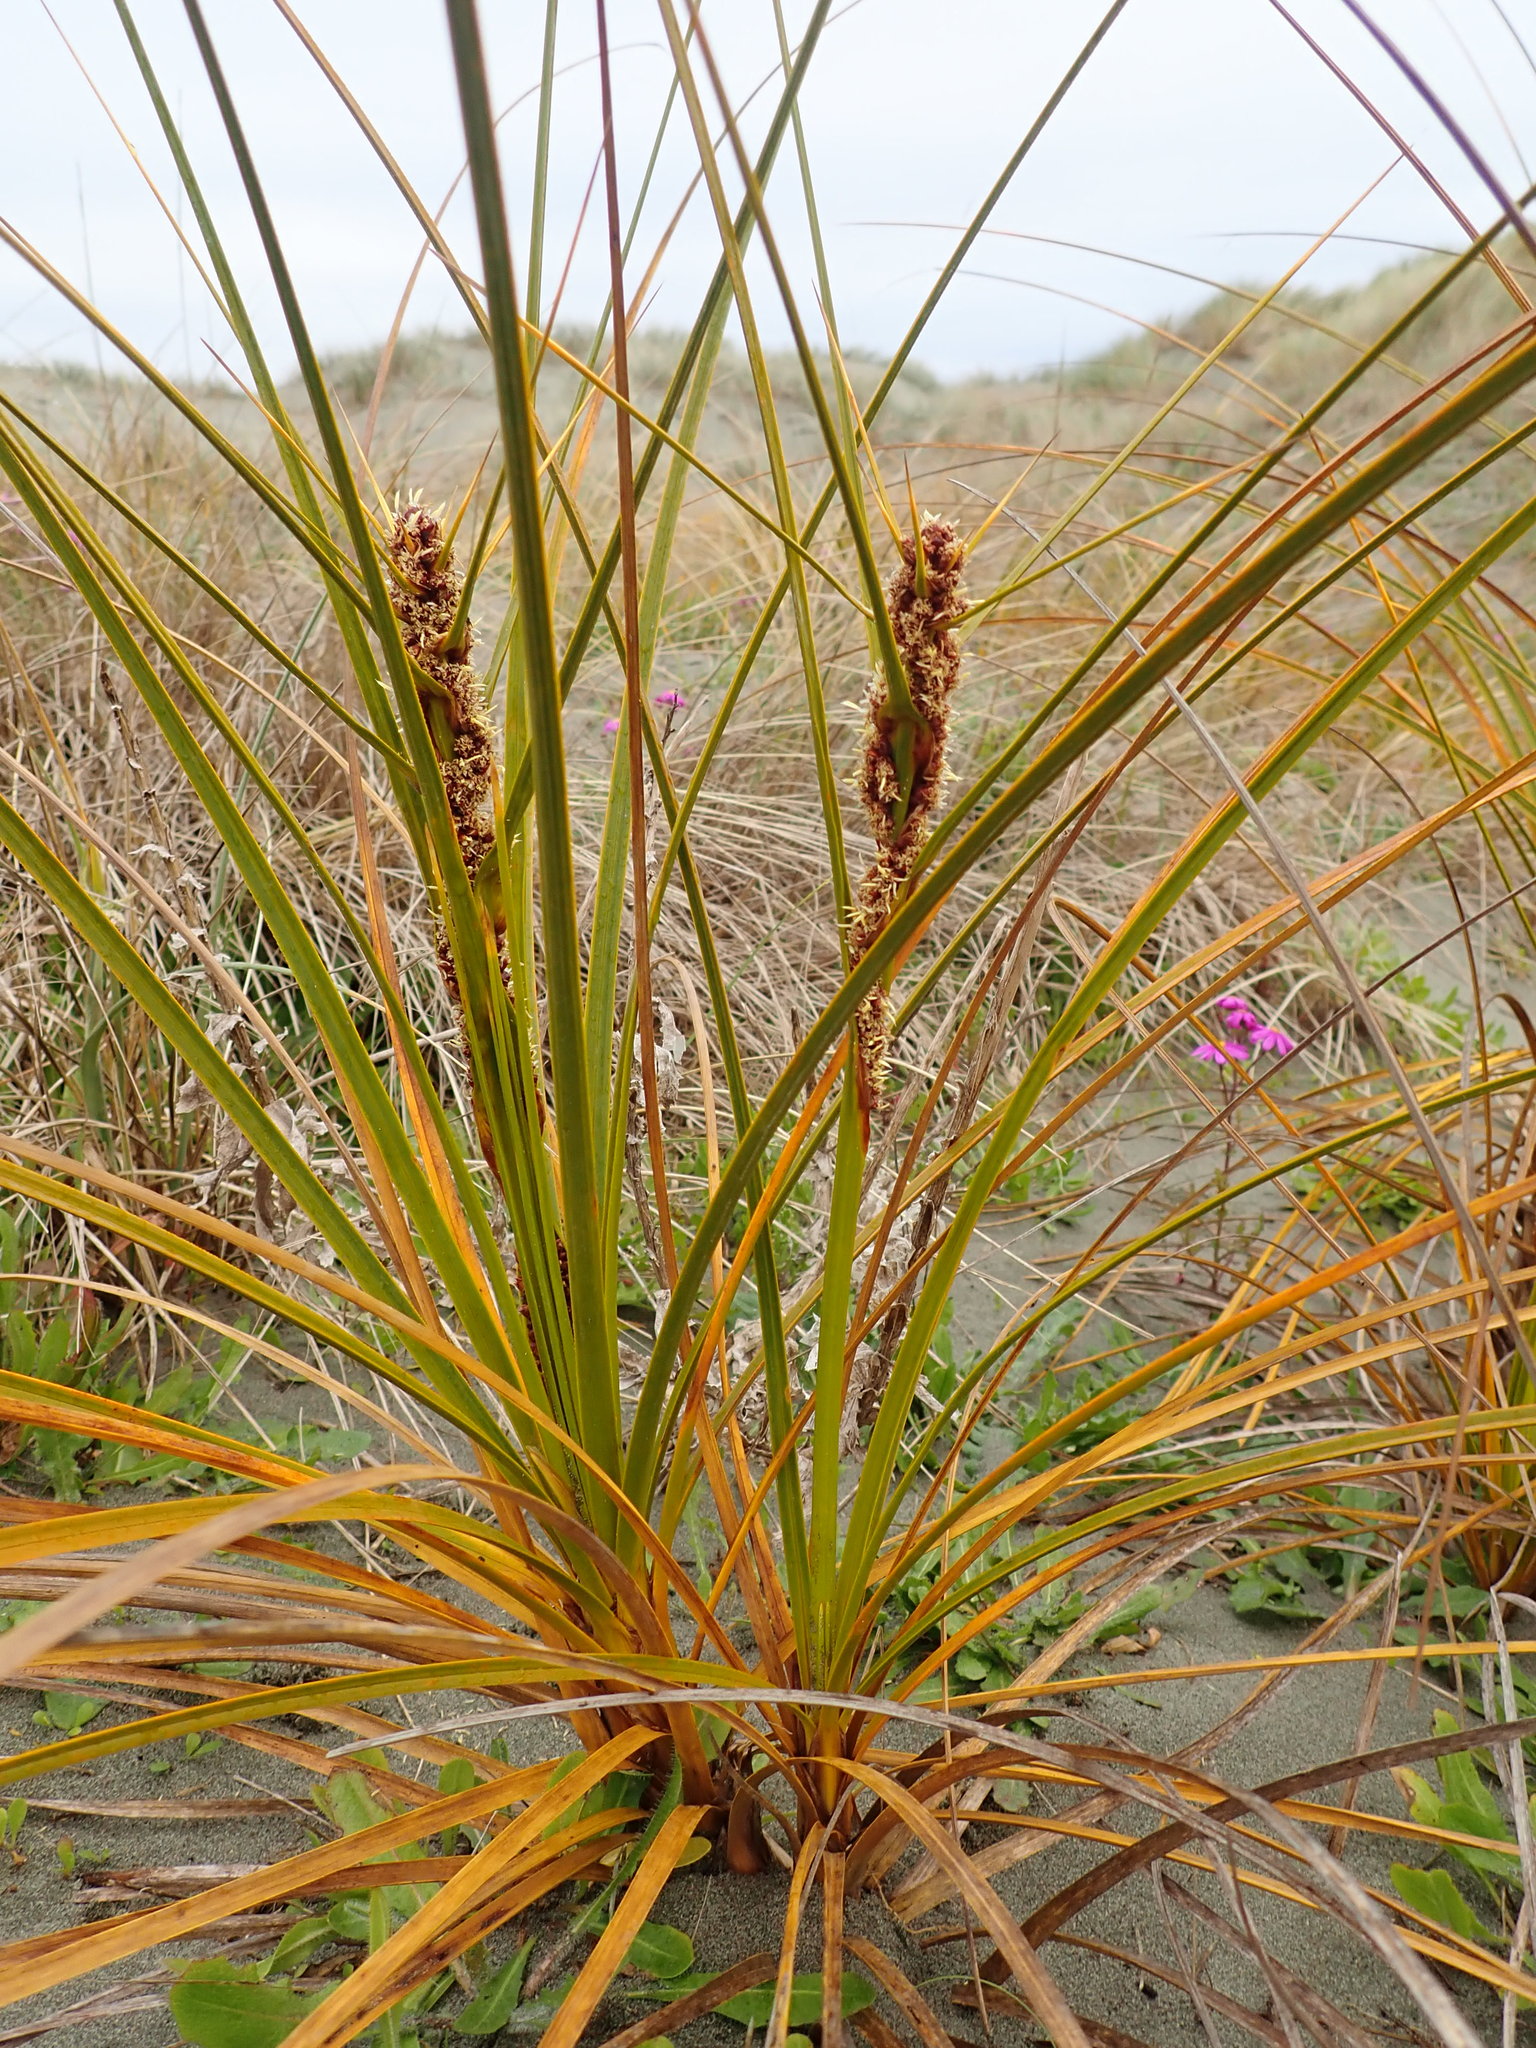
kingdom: Plantae
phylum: Tracheophyta
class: Liliopsida
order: Poales
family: Cyperaceae
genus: Ficinia
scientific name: Ficinia spiralis
